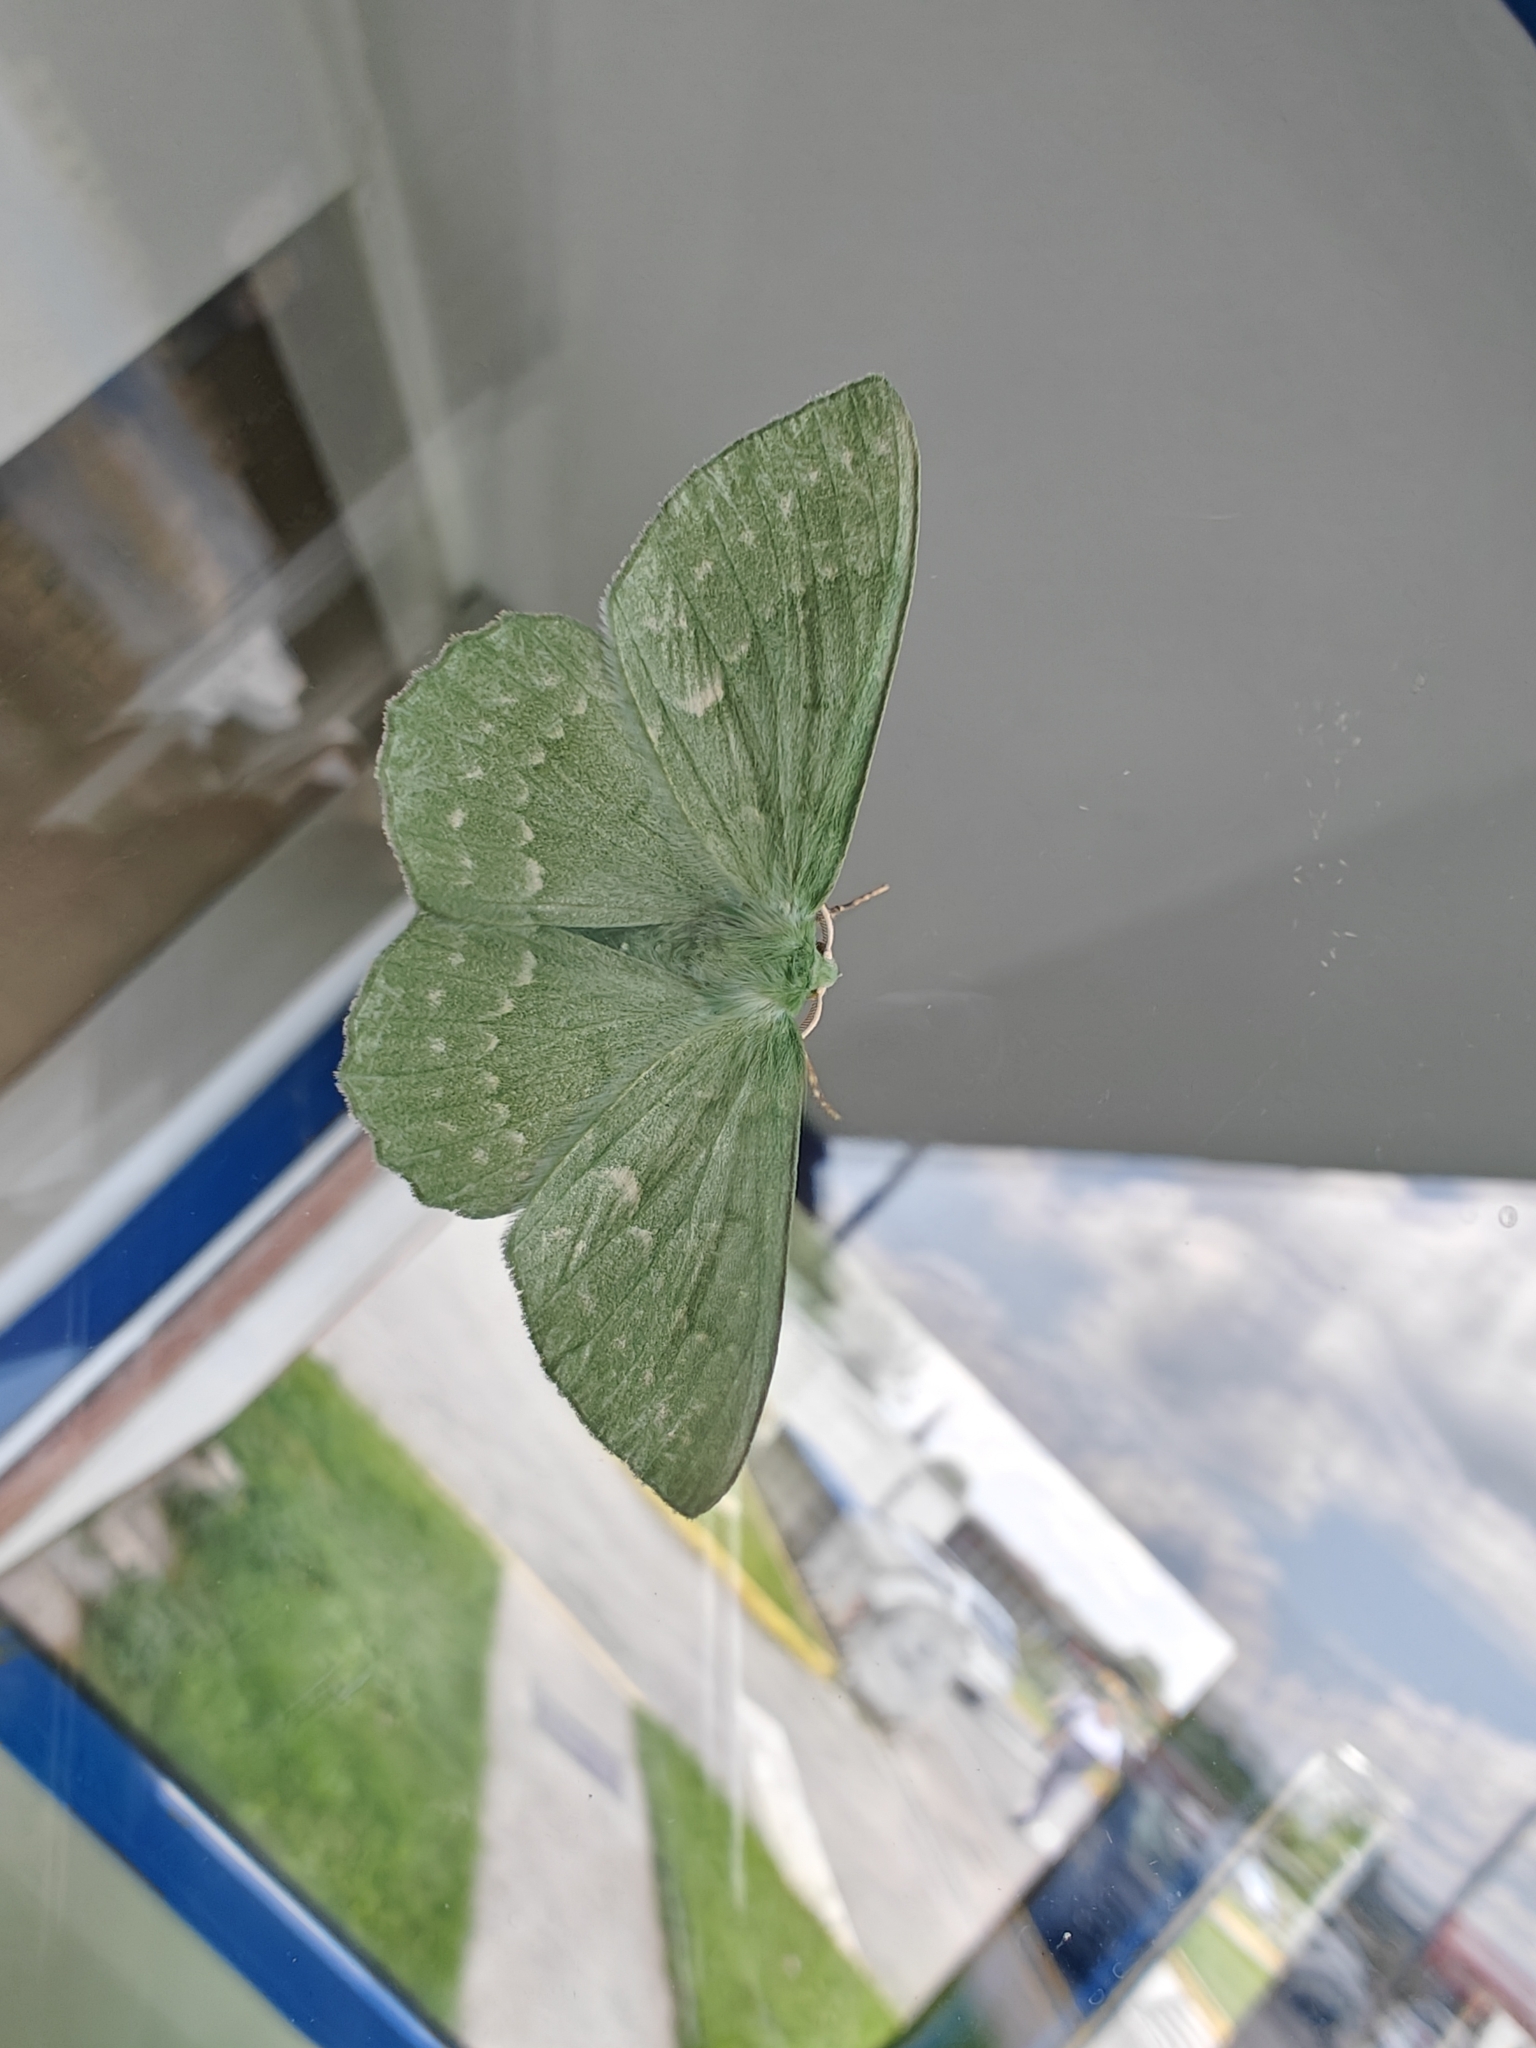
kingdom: Animalia
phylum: Arthropoda
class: Insecta
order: Lepidoptera
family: Geometridae
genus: Geometra
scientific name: Geometra papilionaria
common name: Large emerald
